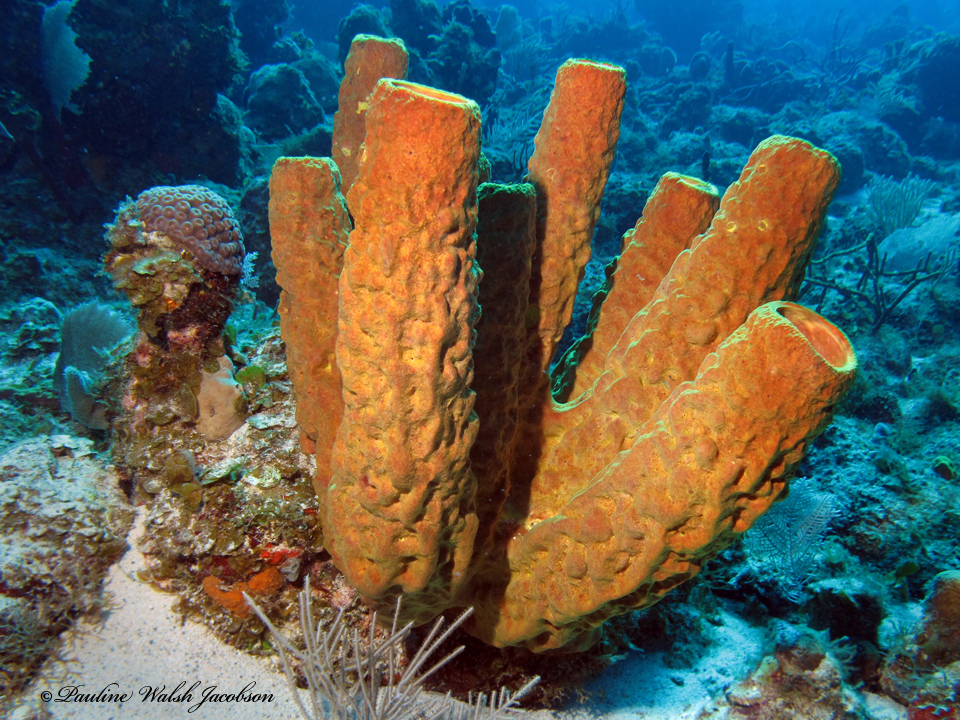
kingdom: Animalia
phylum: Porifera
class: Demospongiae
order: Verongiida
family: Aplysinidae
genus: Aplysina
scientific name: Aplysina fistularis
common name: Candle sponge
